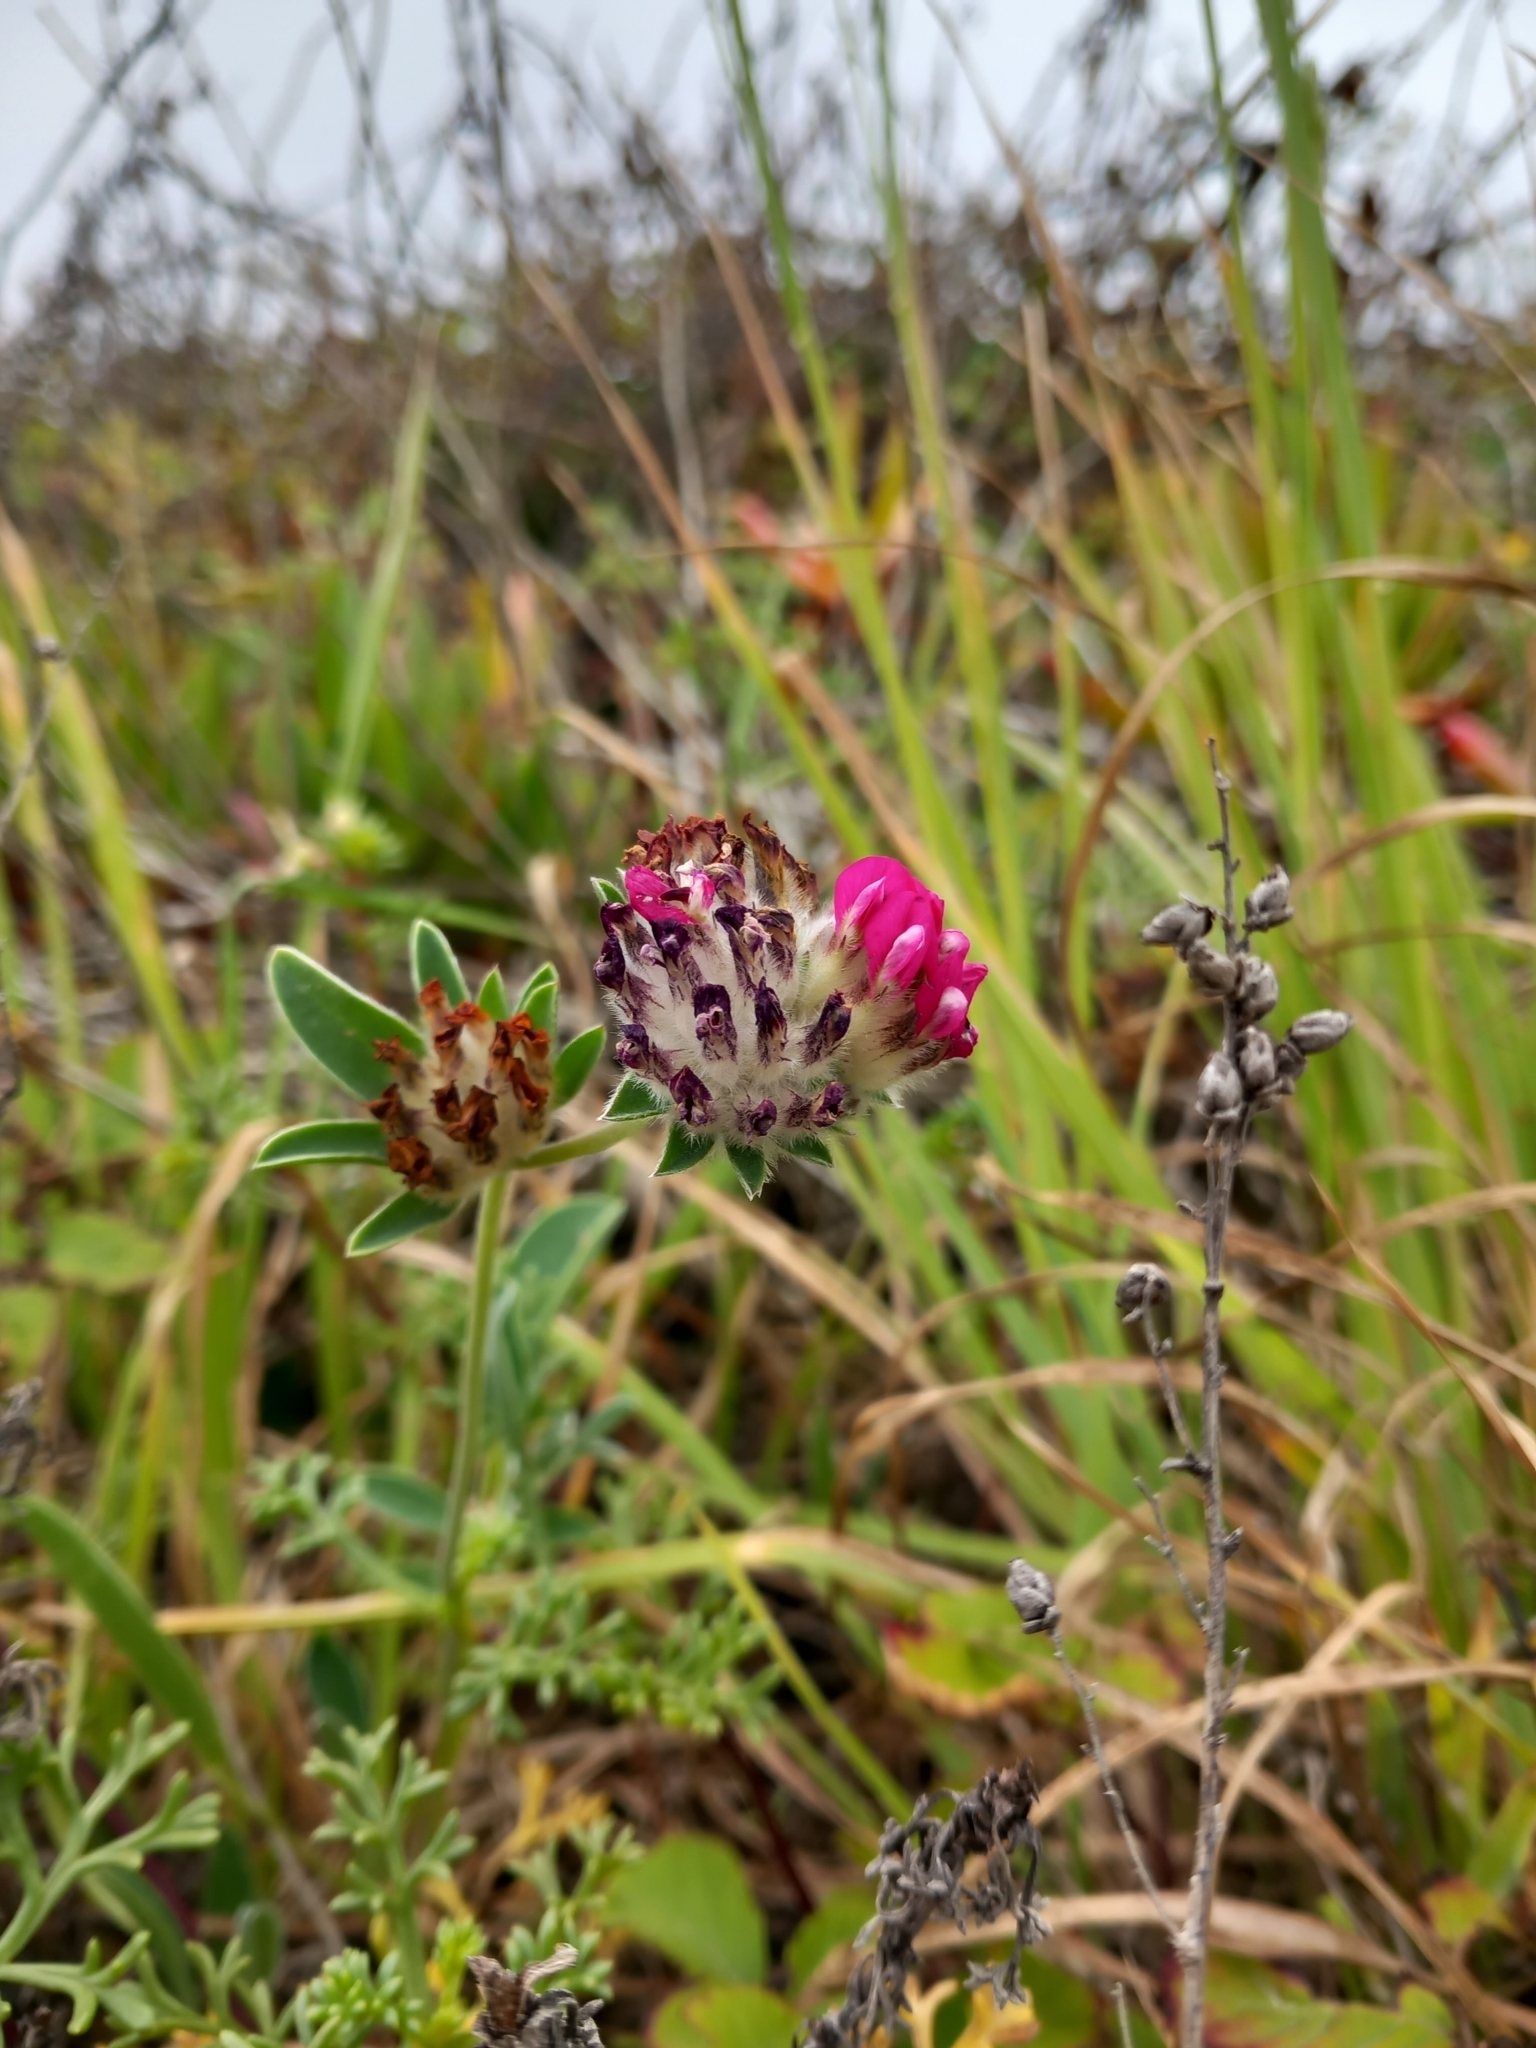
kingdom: Plantae
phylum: Tracheophyta
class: Magnoliopsida
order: Fabales
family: Fabaceae
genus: Anthyllis
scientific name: Anthyllis vulneraria
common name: Kidney vetch
